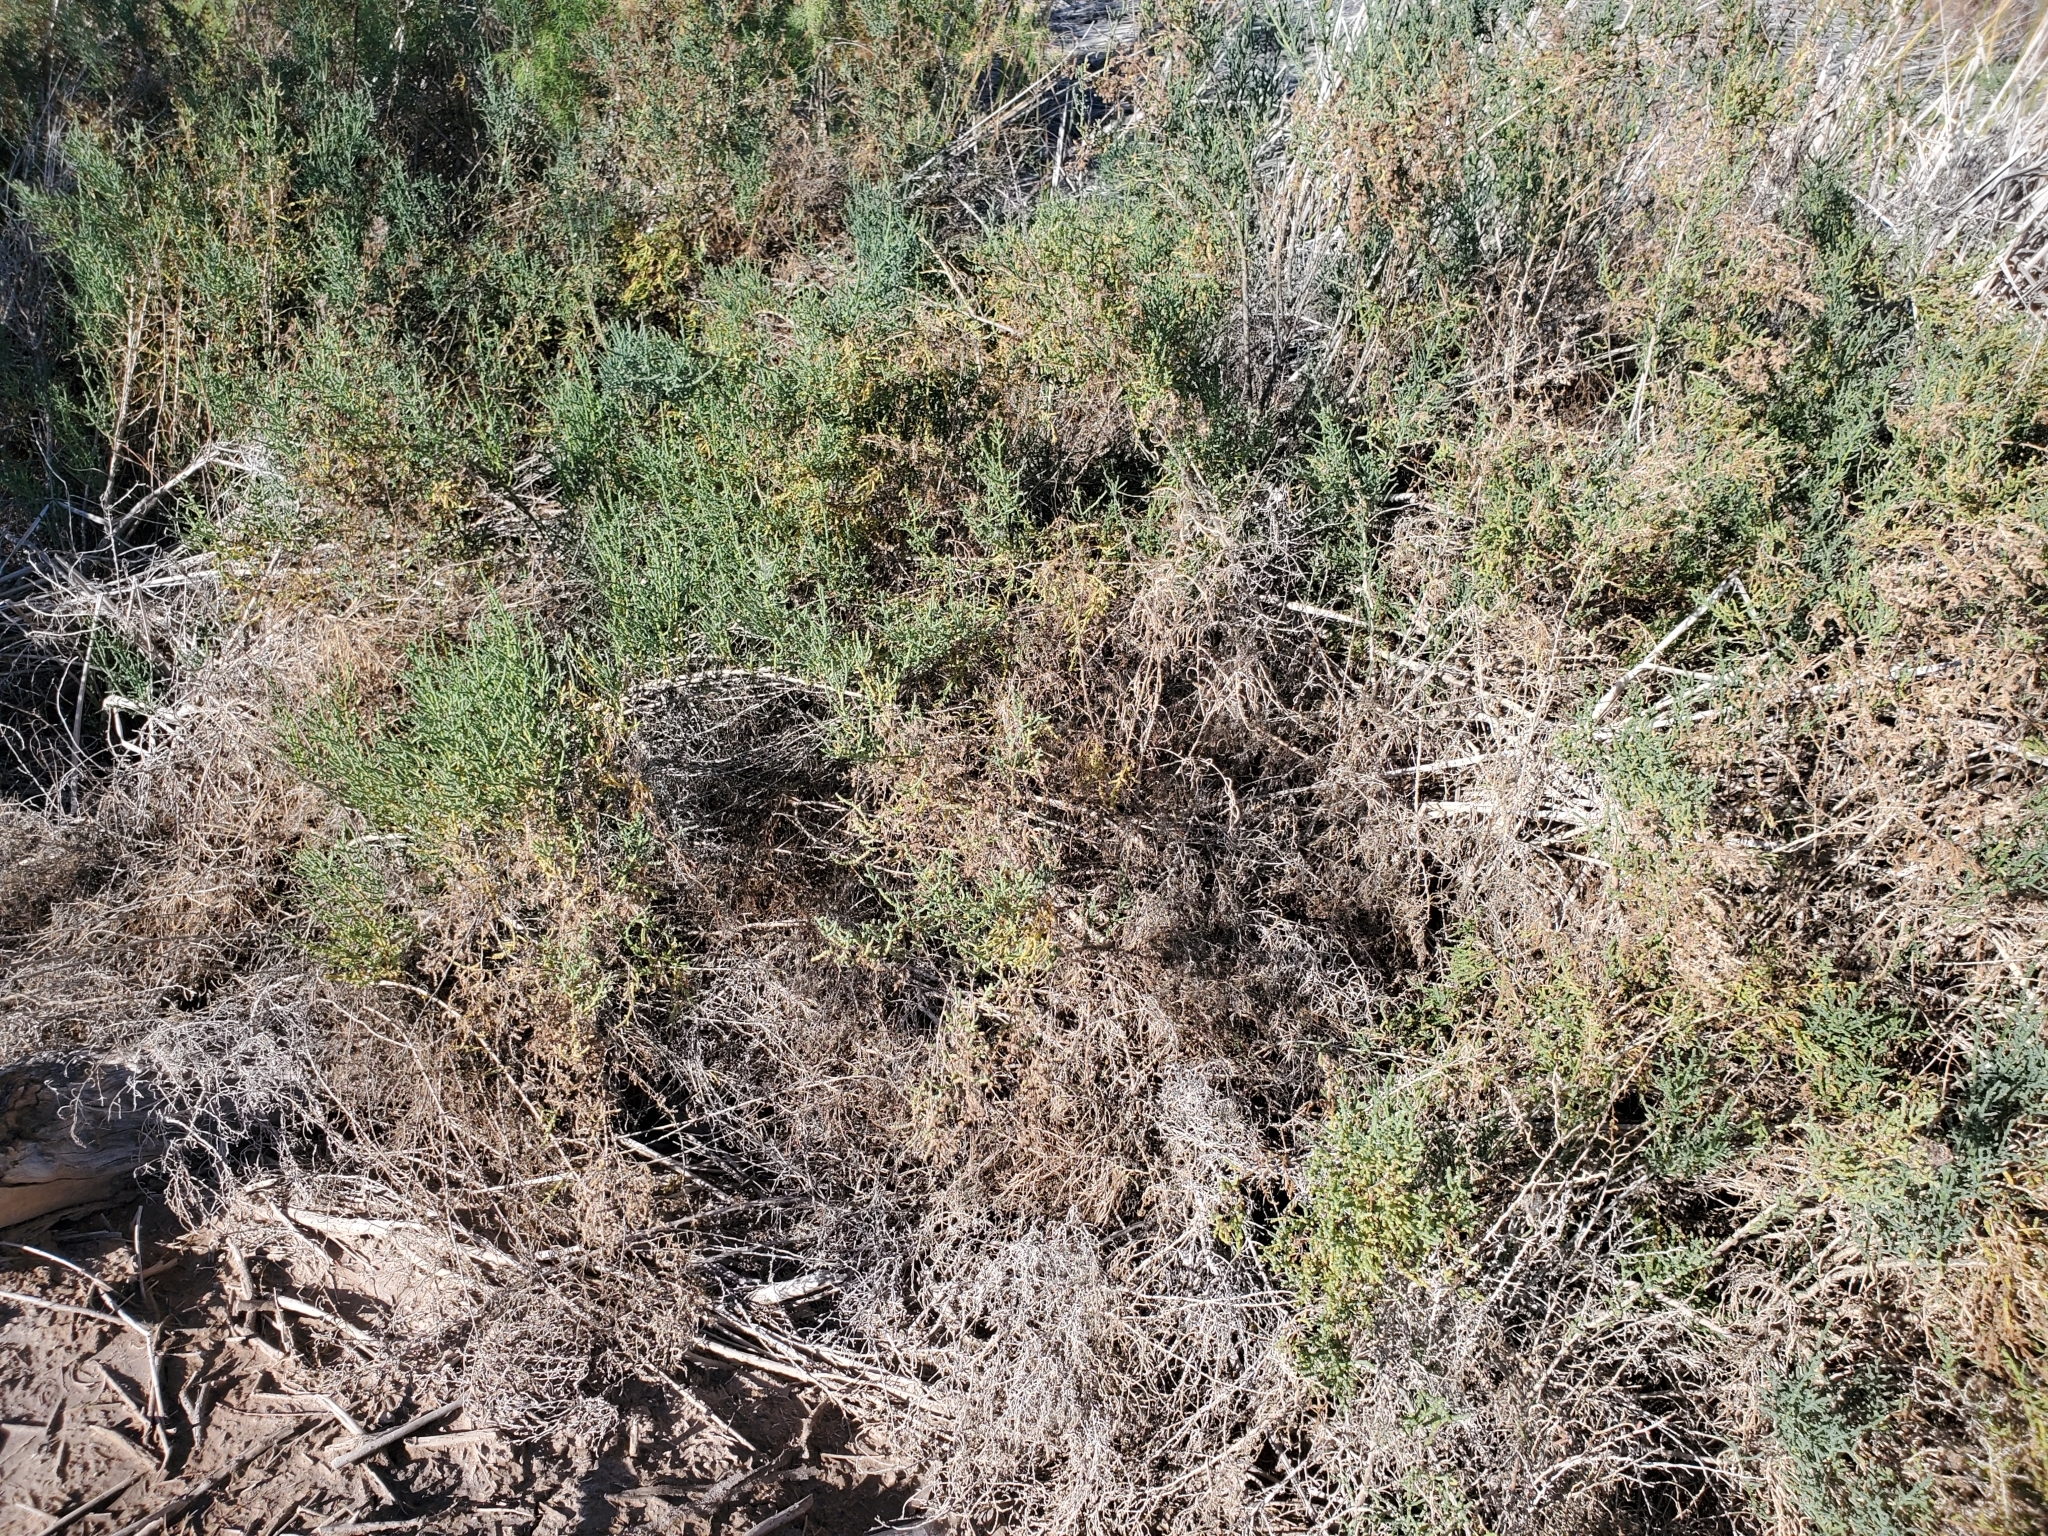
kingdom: Plantae
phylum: Tracheophyta
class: Magnoliopsida
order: Caryophyllales
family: Amaranthaceae
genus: Allenrolfea
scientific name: Allenrolfea occidentalis
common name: Iodine-bush
